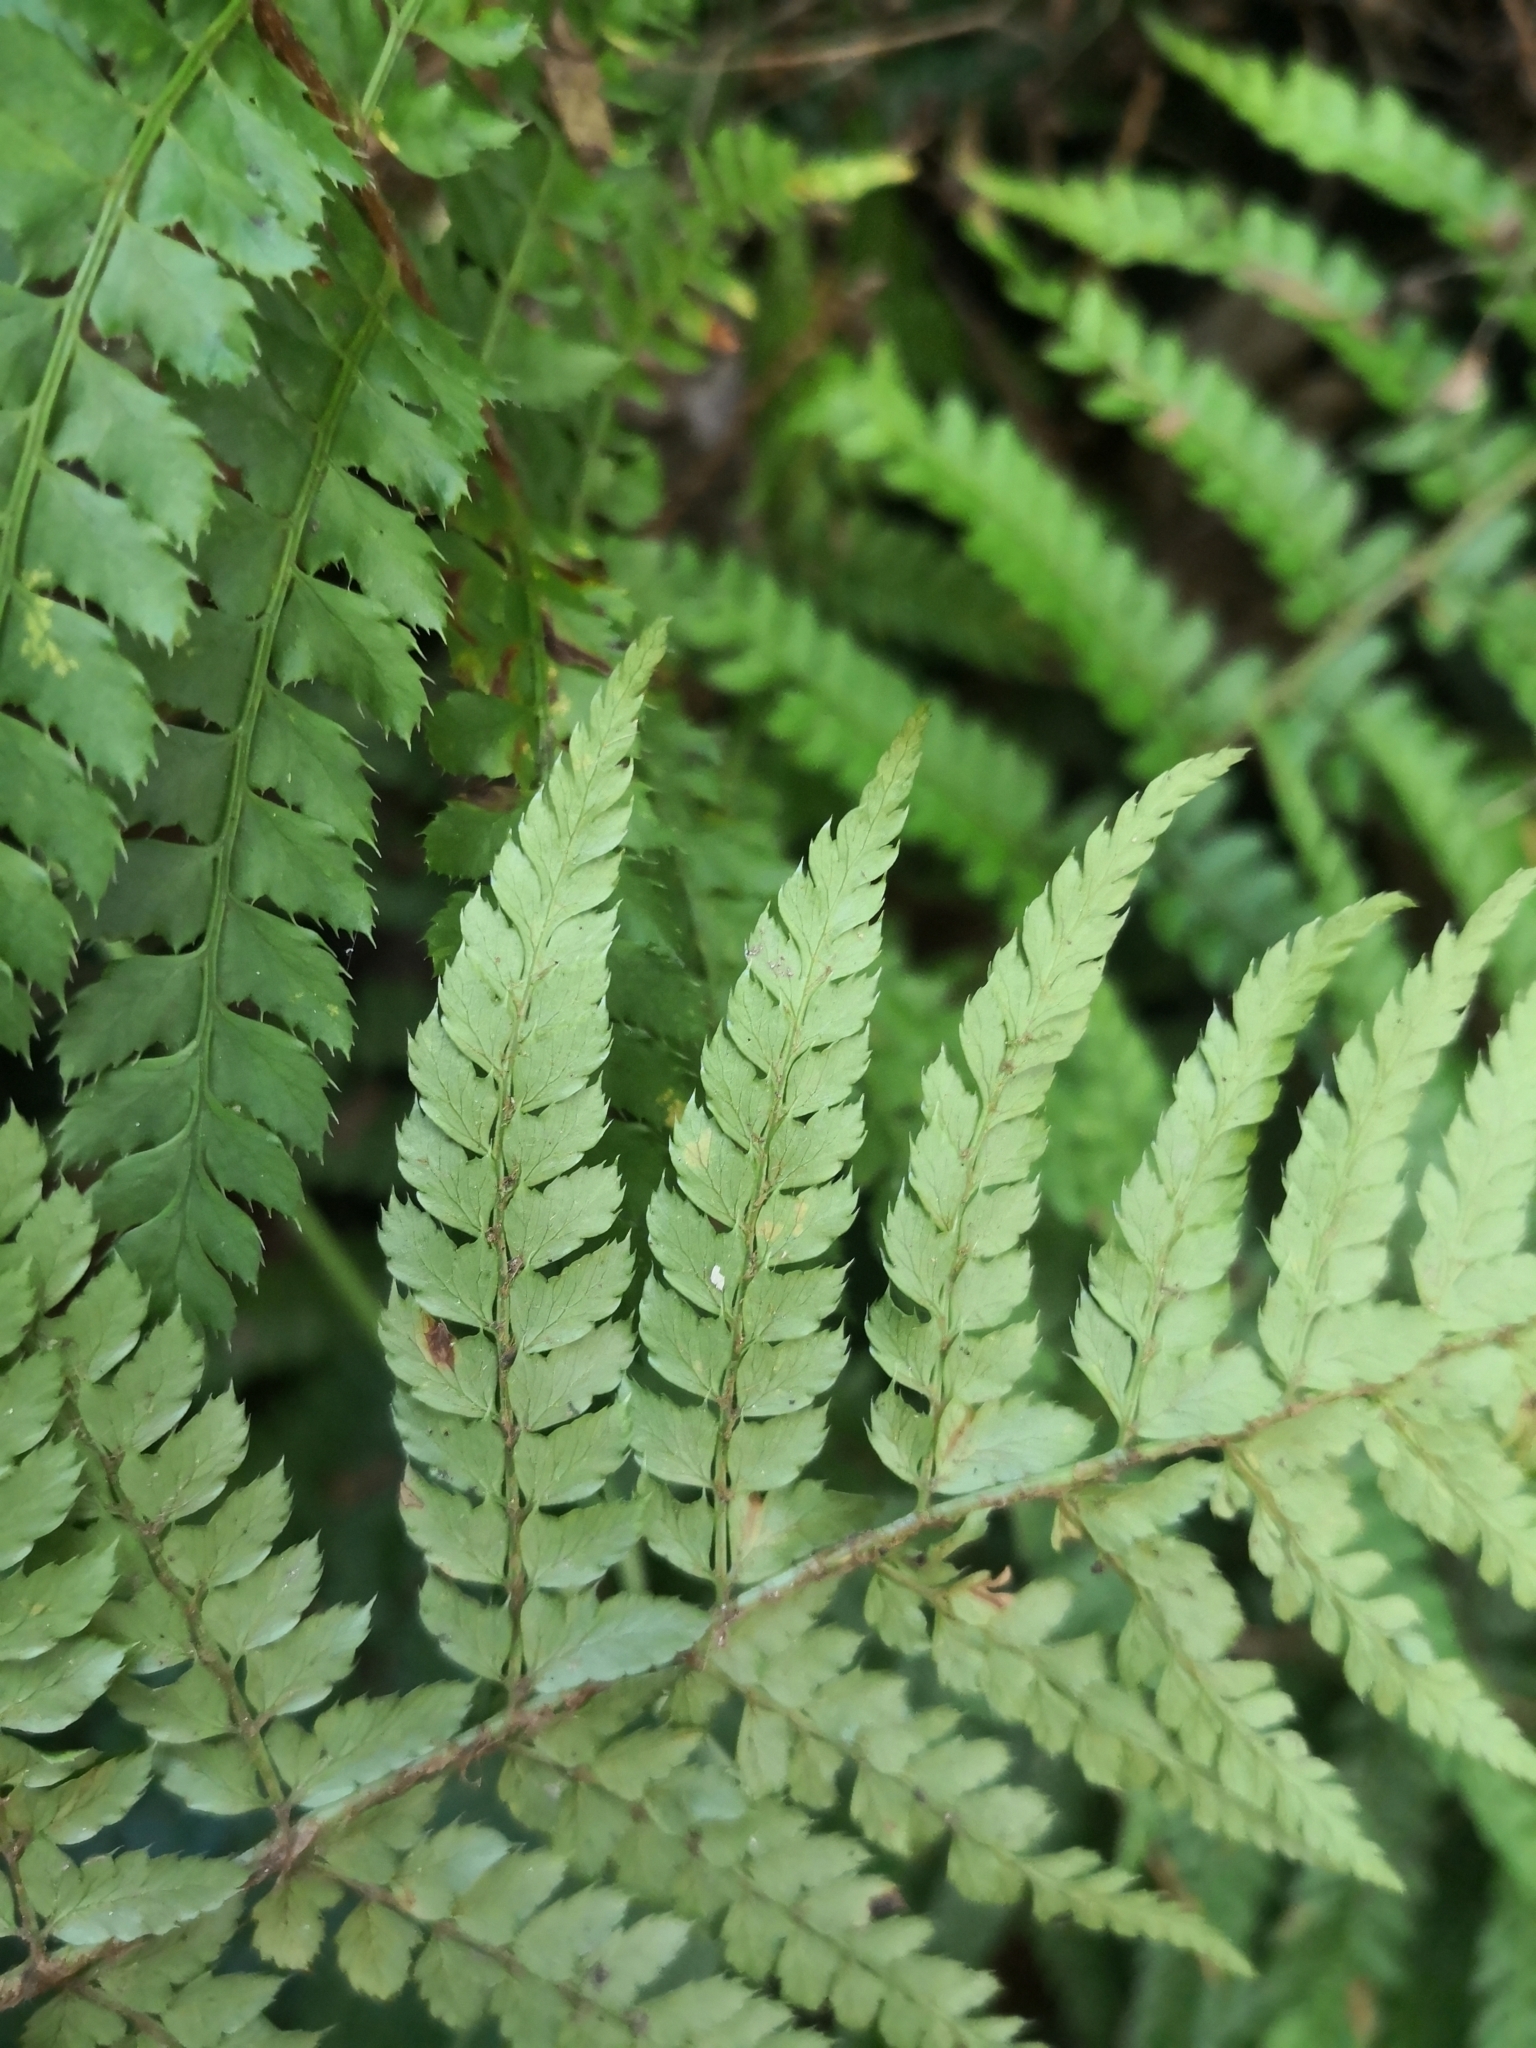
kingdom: Plantae
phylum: Tracheophyta
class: Polypodiopsida
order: Polypodiales
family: Dryopteridaceae
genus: Polystichum
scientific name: Polystichum setiferum
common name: Soft shield-fern
